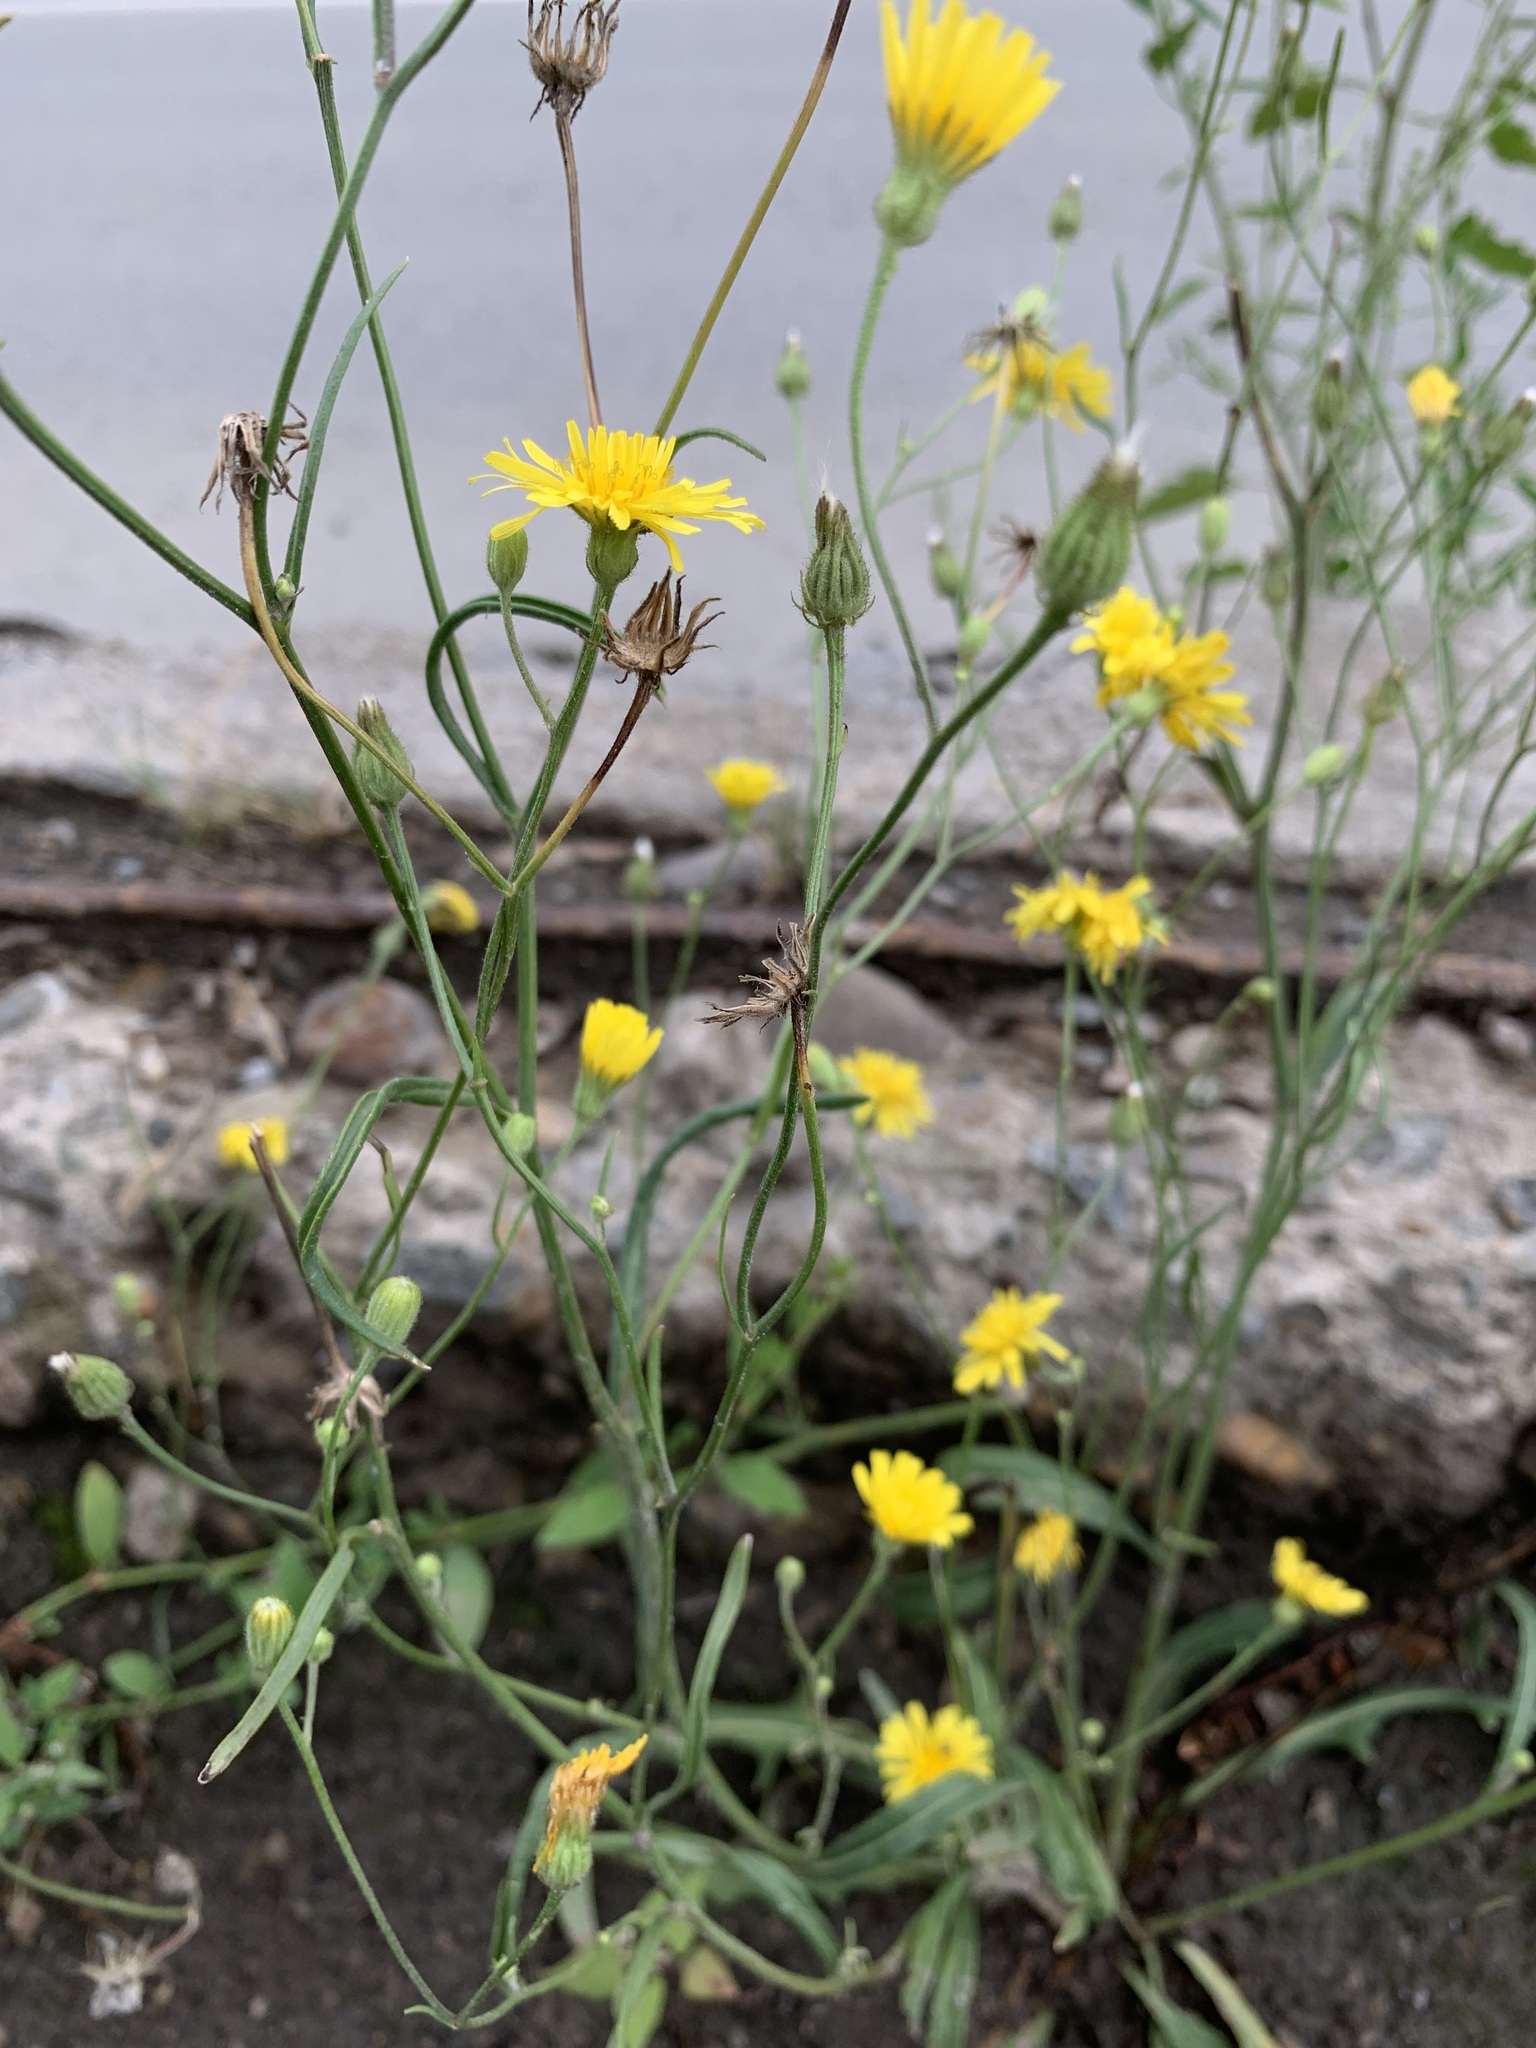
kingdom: Plantae
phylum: Tracheophyta
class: Magnoliopsida
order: Asterales
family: Asteraceae
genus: Crepis
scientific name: Crepis tectorum
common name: Narrow-leaved hawk's-beard
